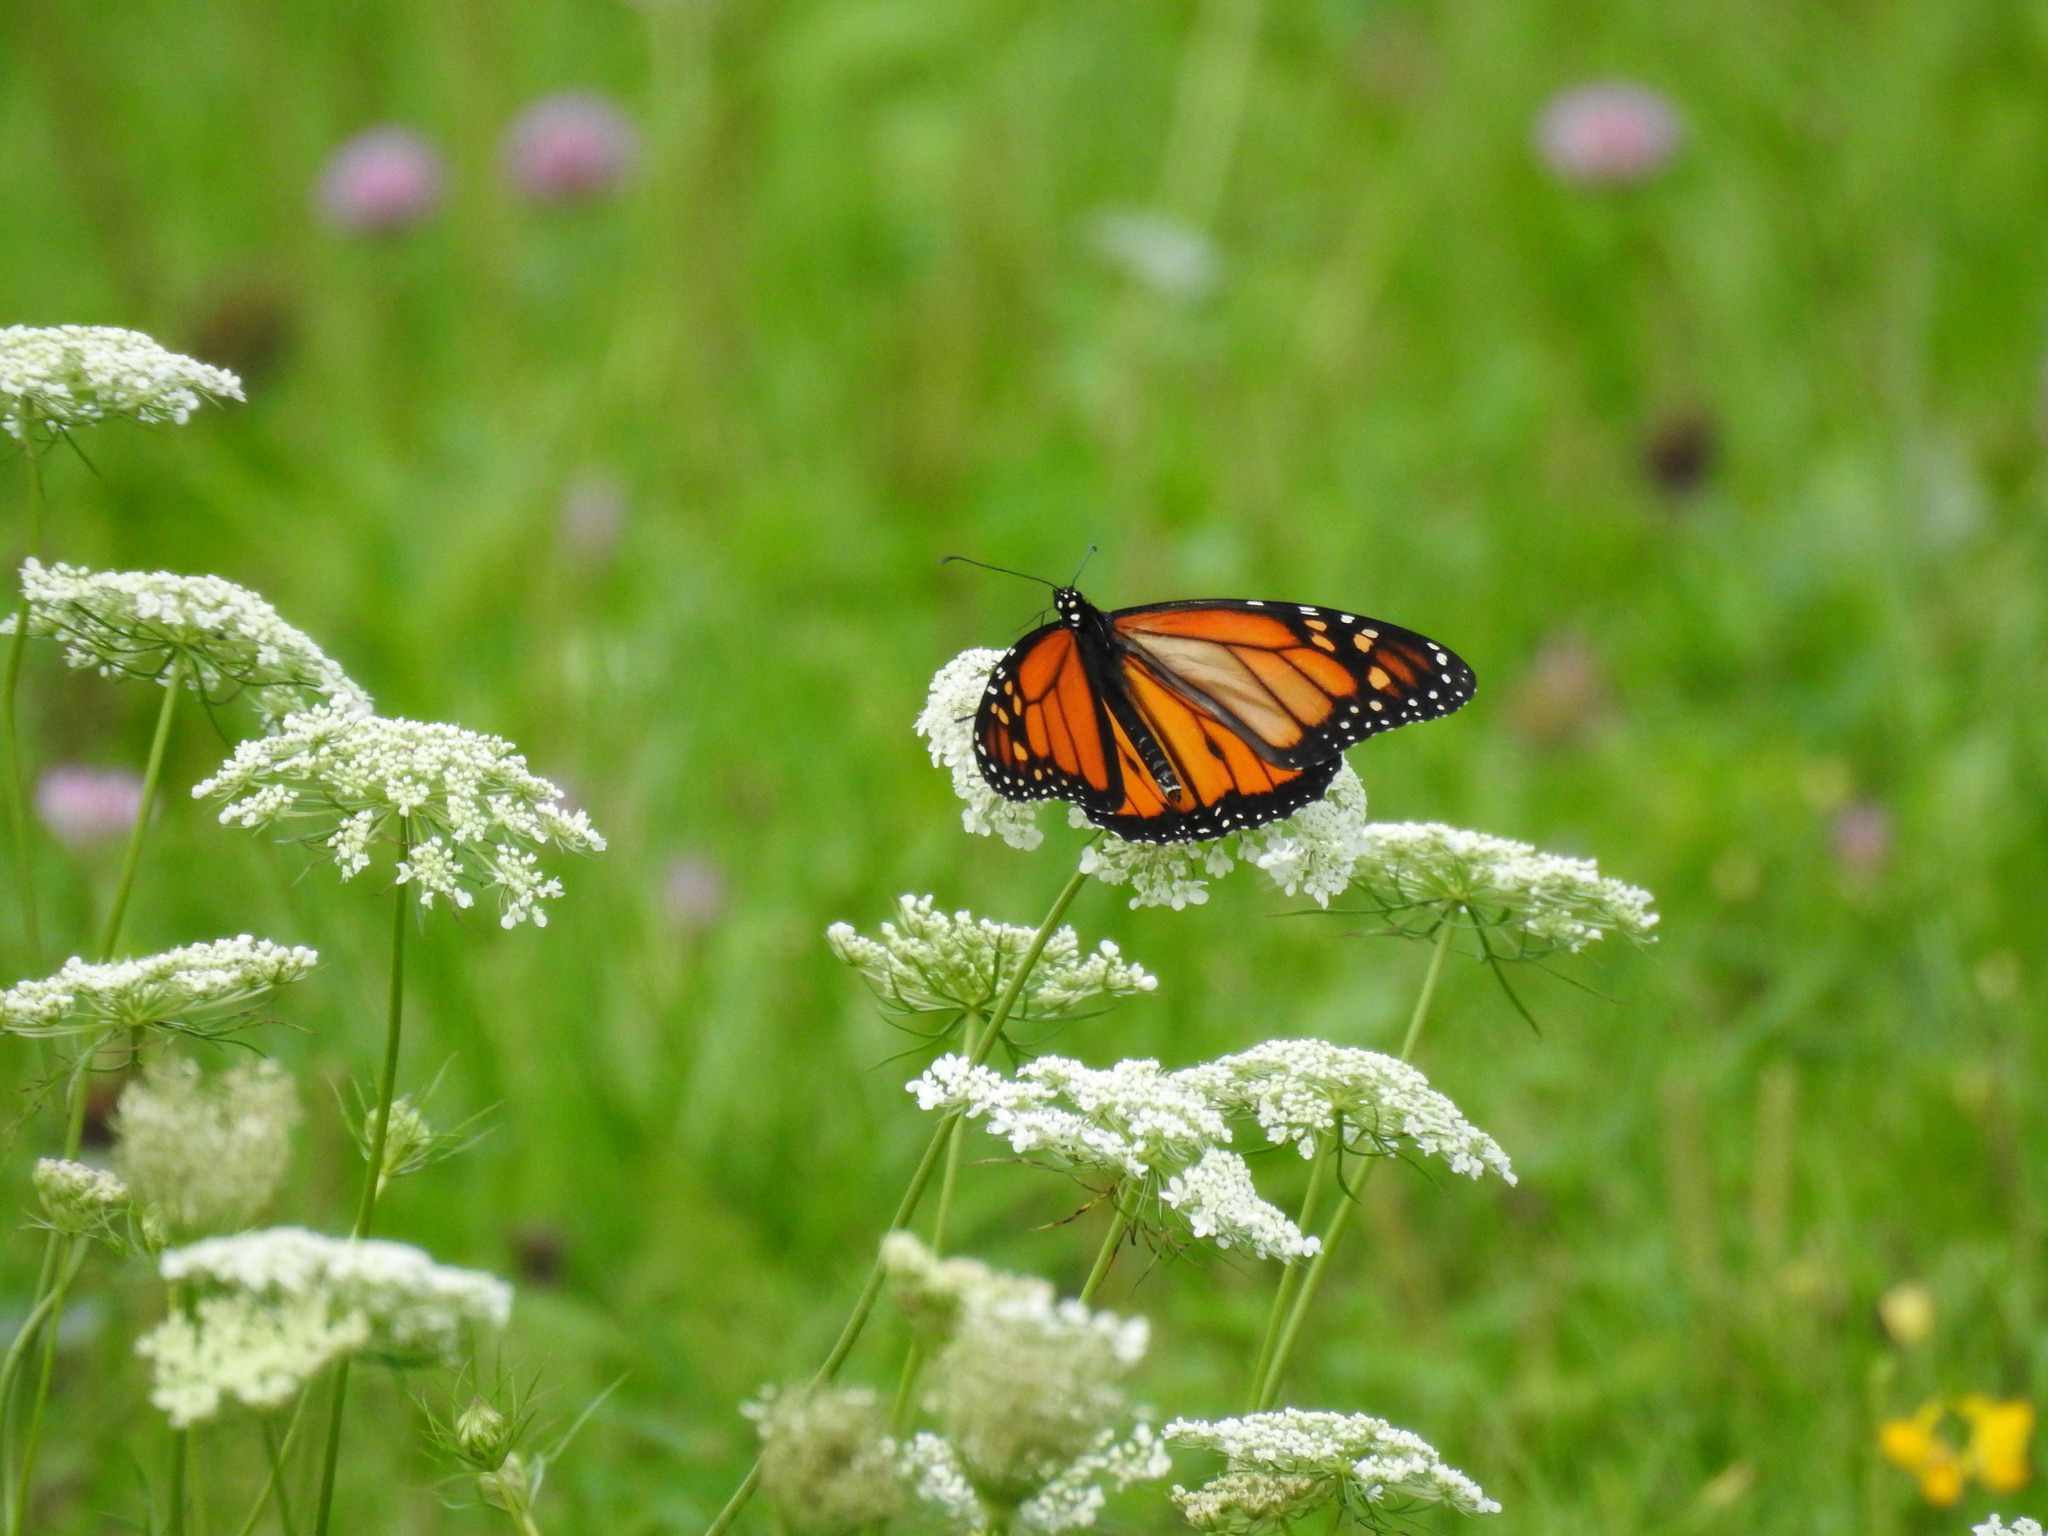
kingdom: Animalia
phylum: Arthropoda
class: Insecta
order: Lepidoptera
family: Nymphalidae
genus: Danaus
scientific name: Danaus plexippus
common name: Monarch
